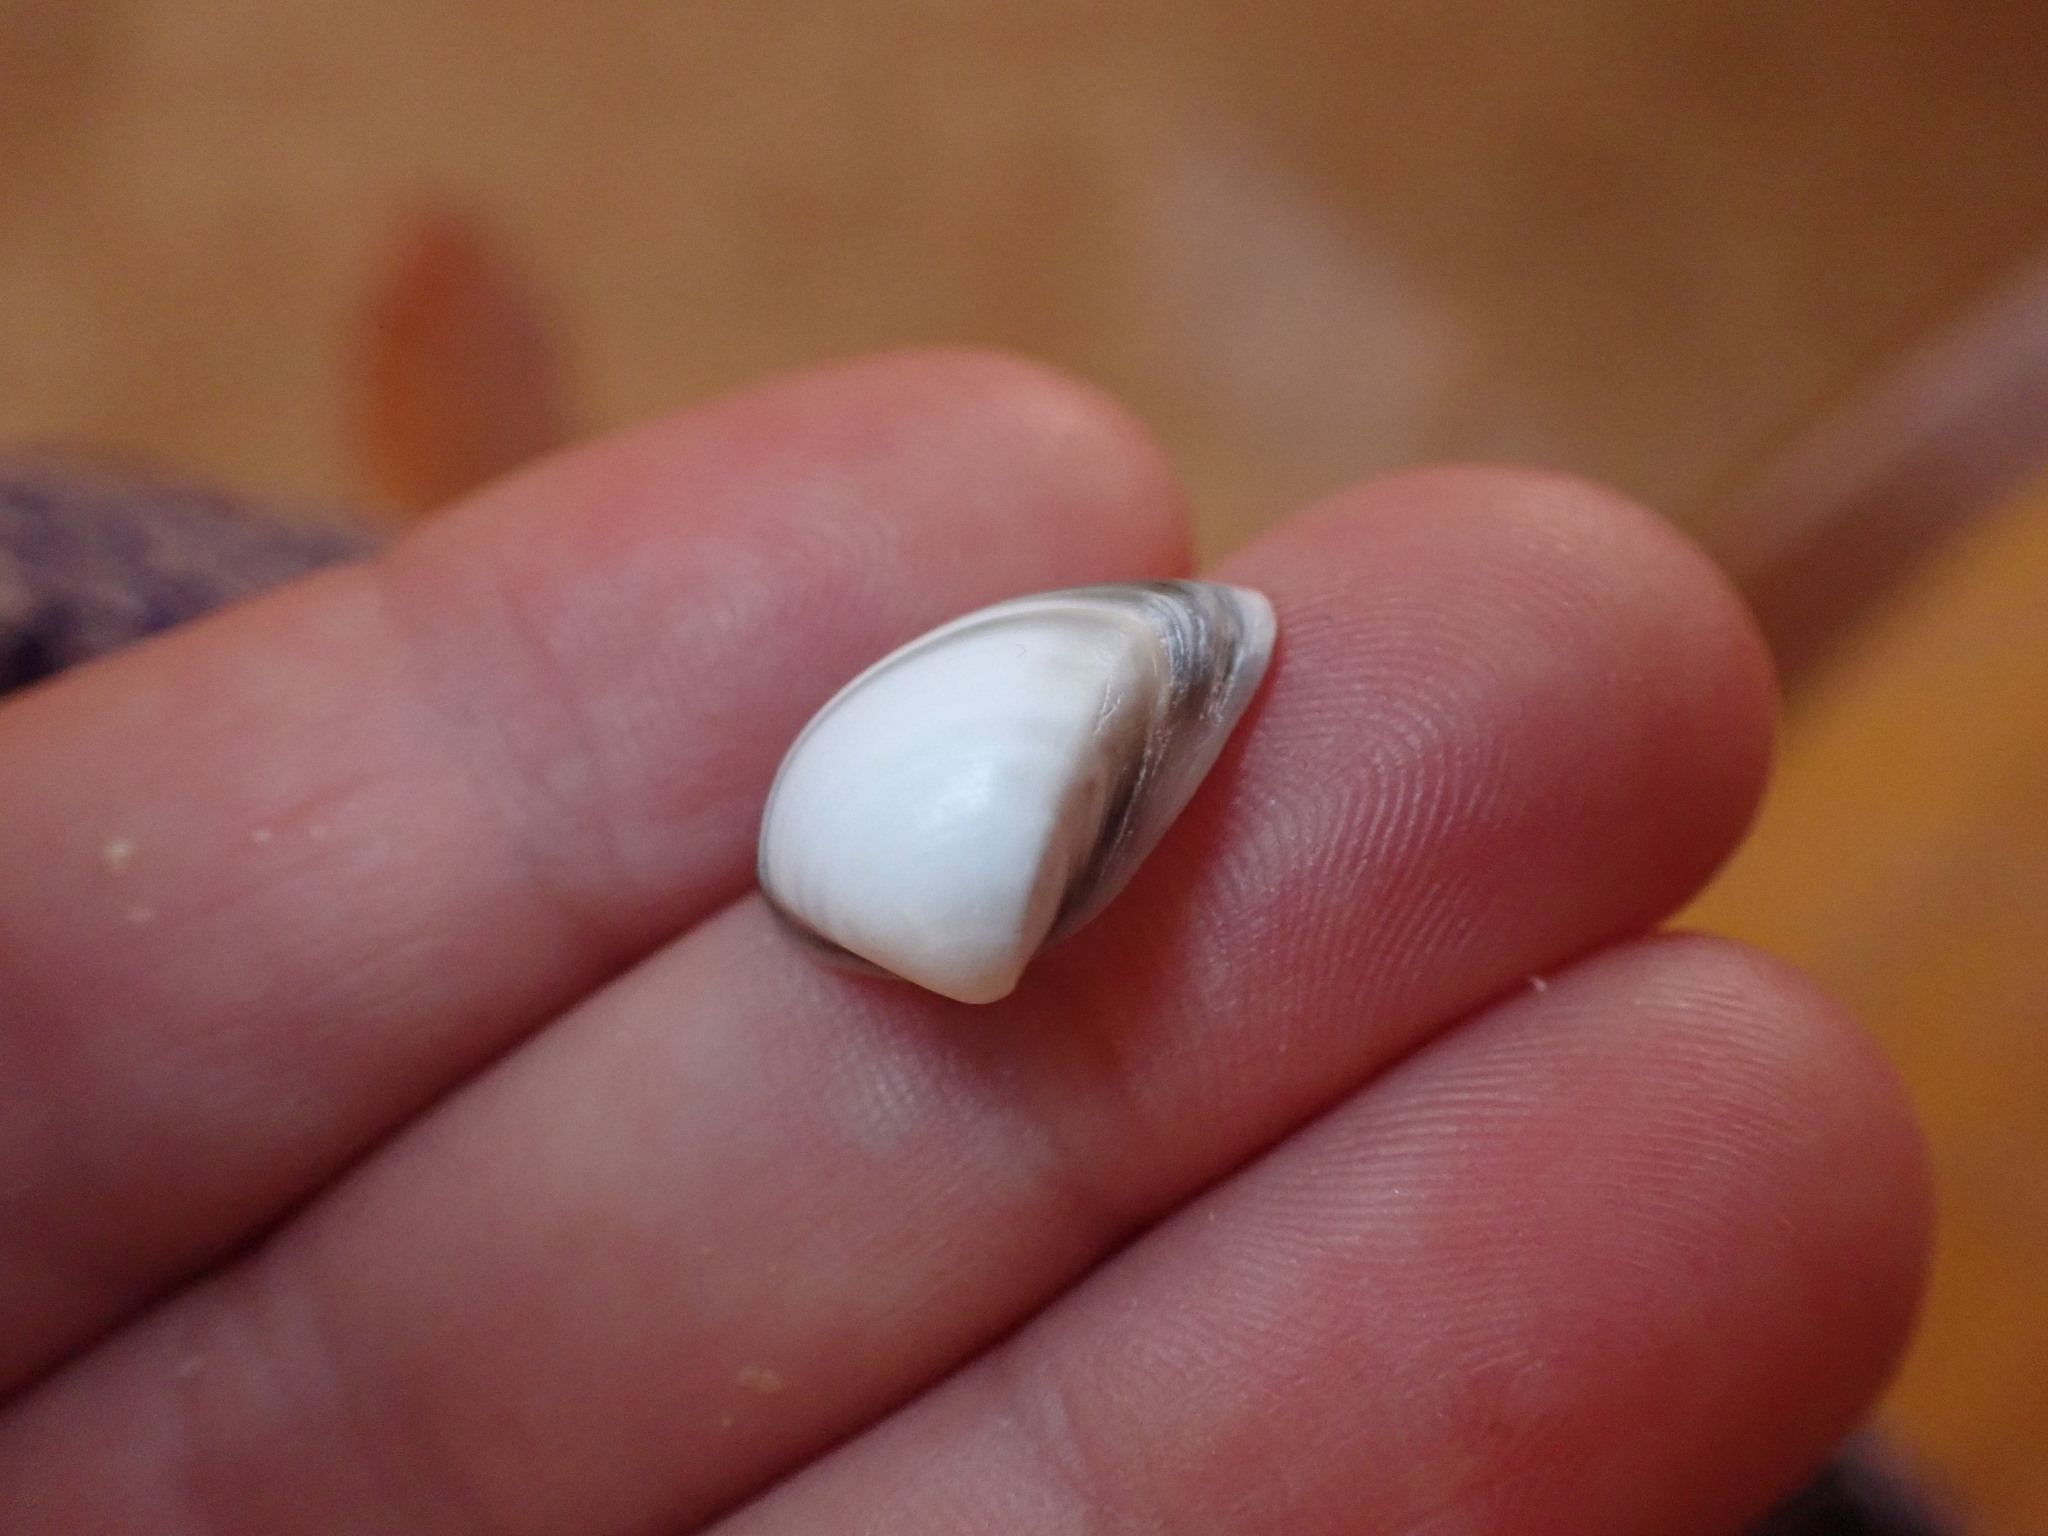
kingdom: Animalia
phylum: Mollusca
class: Bivalvia
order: Venerida
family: Mactridae
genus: Spisula
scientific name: Spisula subtruncata
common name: Cut trough shell
